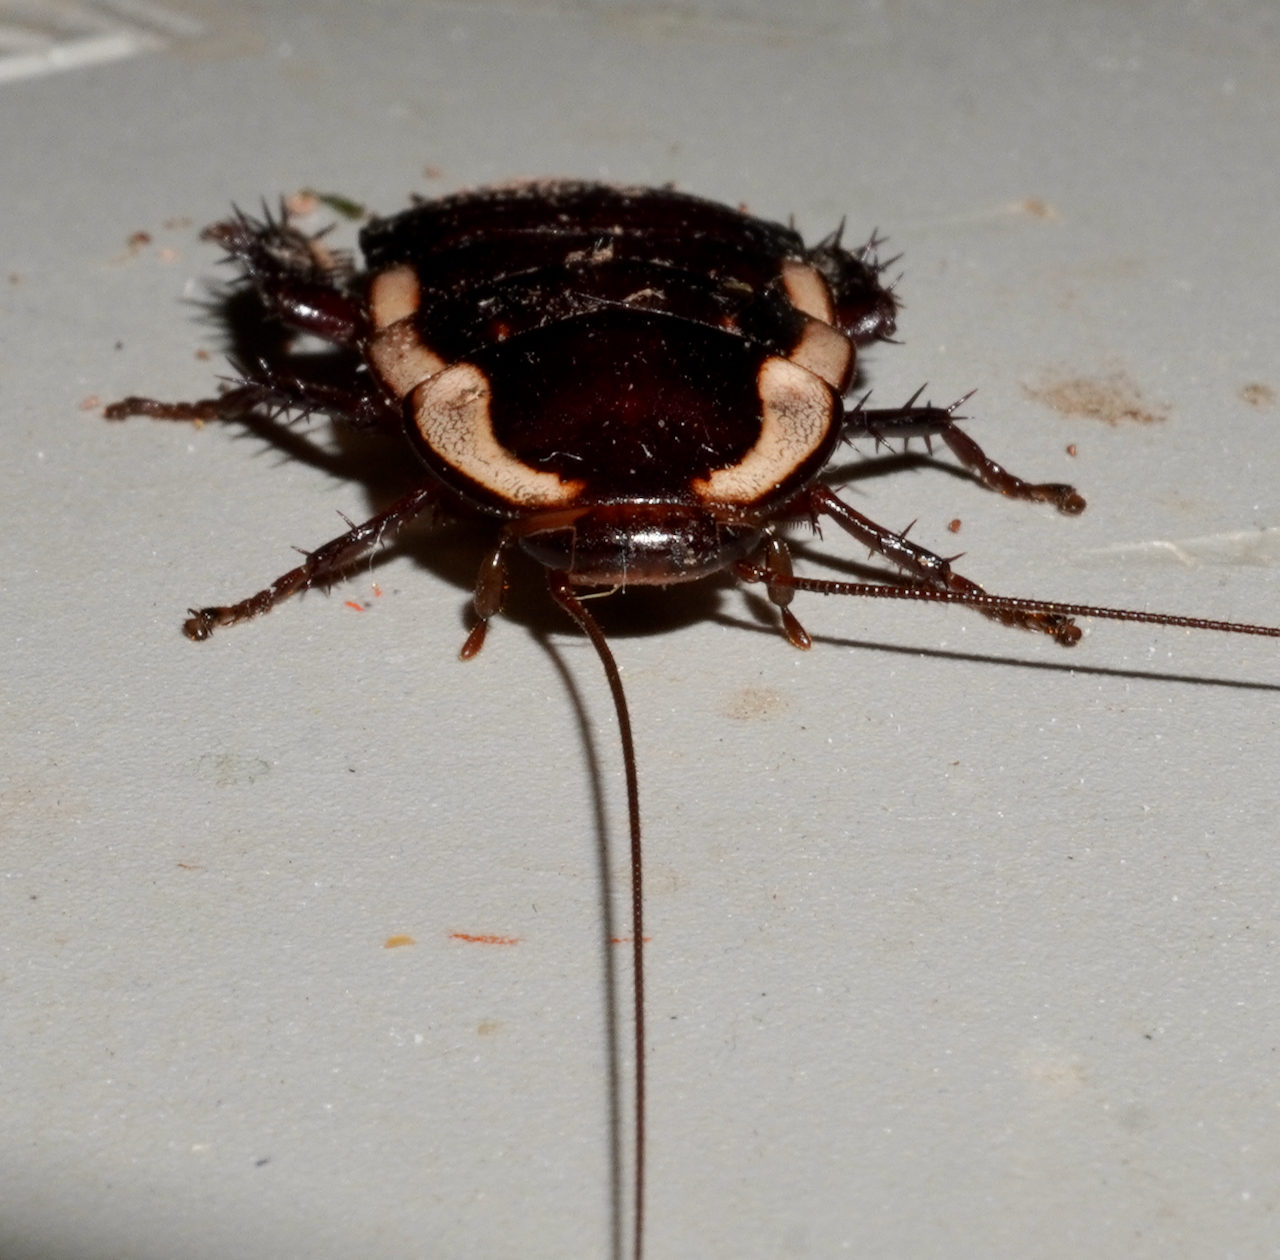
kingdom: Animalia
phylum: Arthropoda
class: Insecta
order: Blattodea
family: Blattidae
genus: Drymaplaneta
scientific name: Drymaplaneta semivitta
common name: Gisborne cockroach
